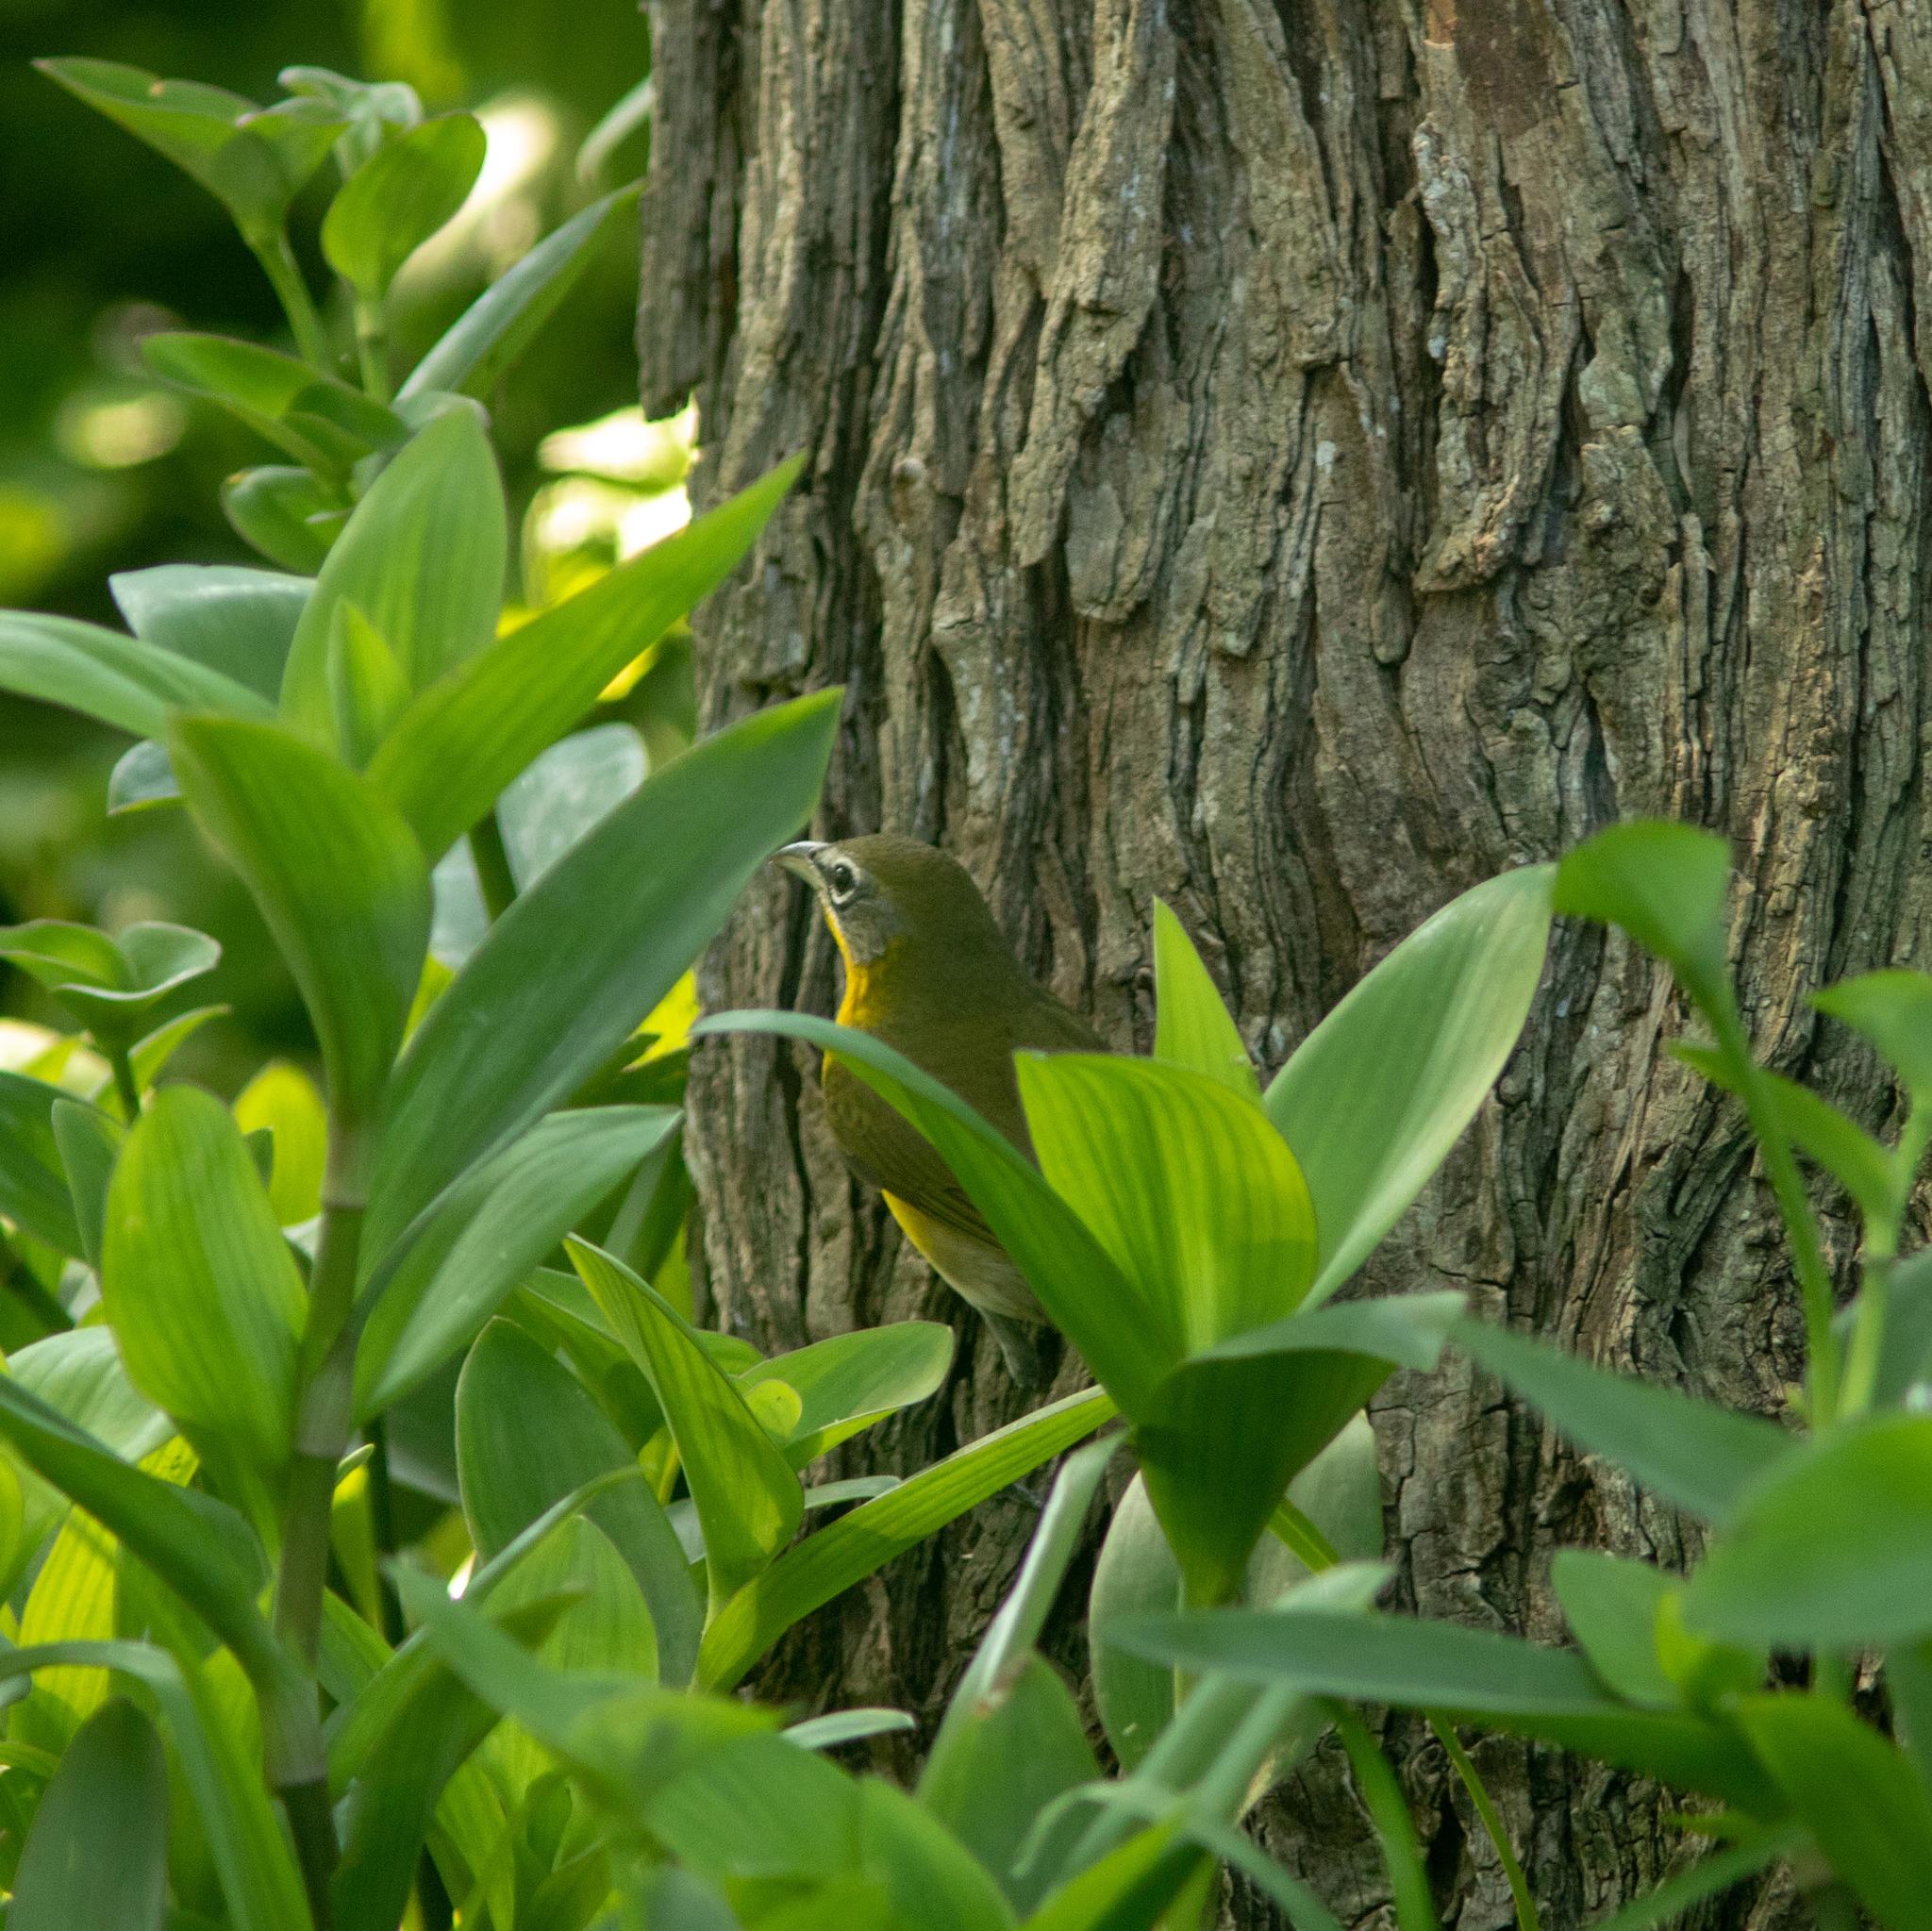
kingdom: Animalia
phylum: Chordata
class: Aves
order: Passeriformes
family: Parulidae
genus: Icteria
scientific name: Icteria virens
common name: Yellow-breasted chat
